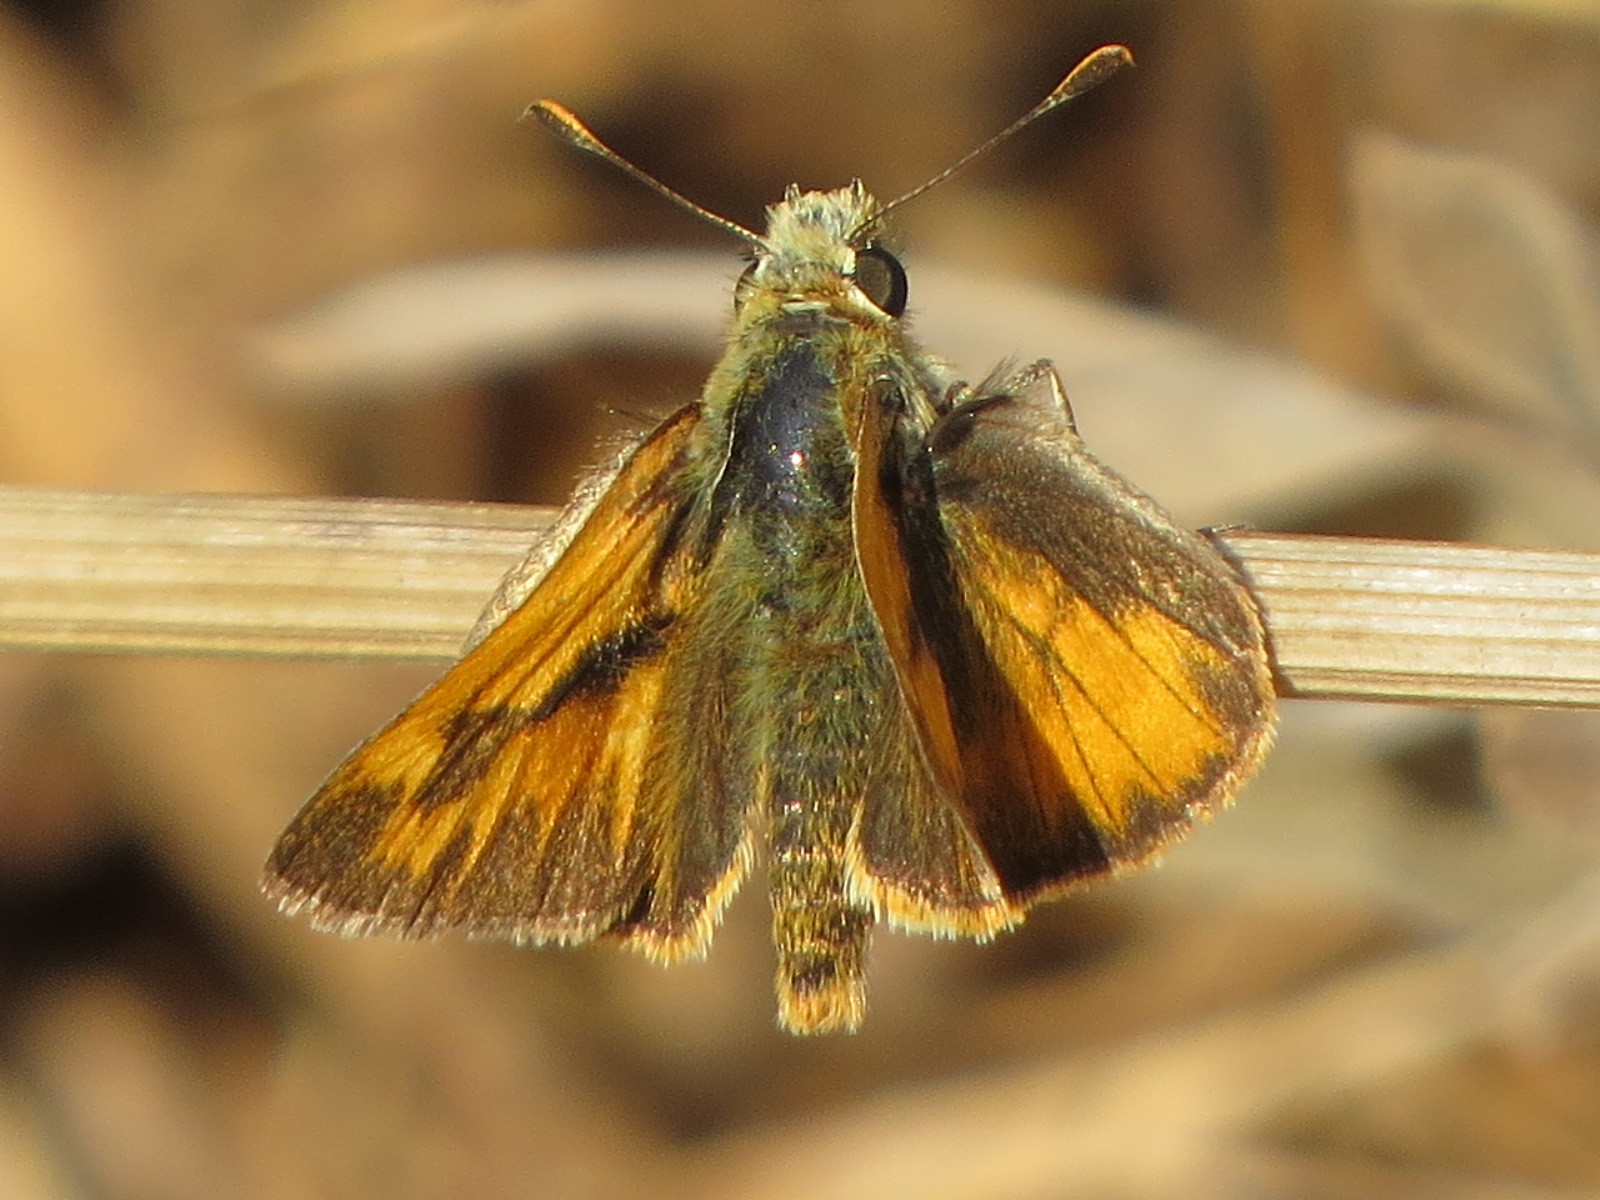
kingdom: Animalia
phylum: Arthropoda
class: Insecta
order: Lepidoptera
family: Hesperiidae
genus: Ochlodes
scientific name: Ochlodes sylvanoides
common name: Woodland skipper
